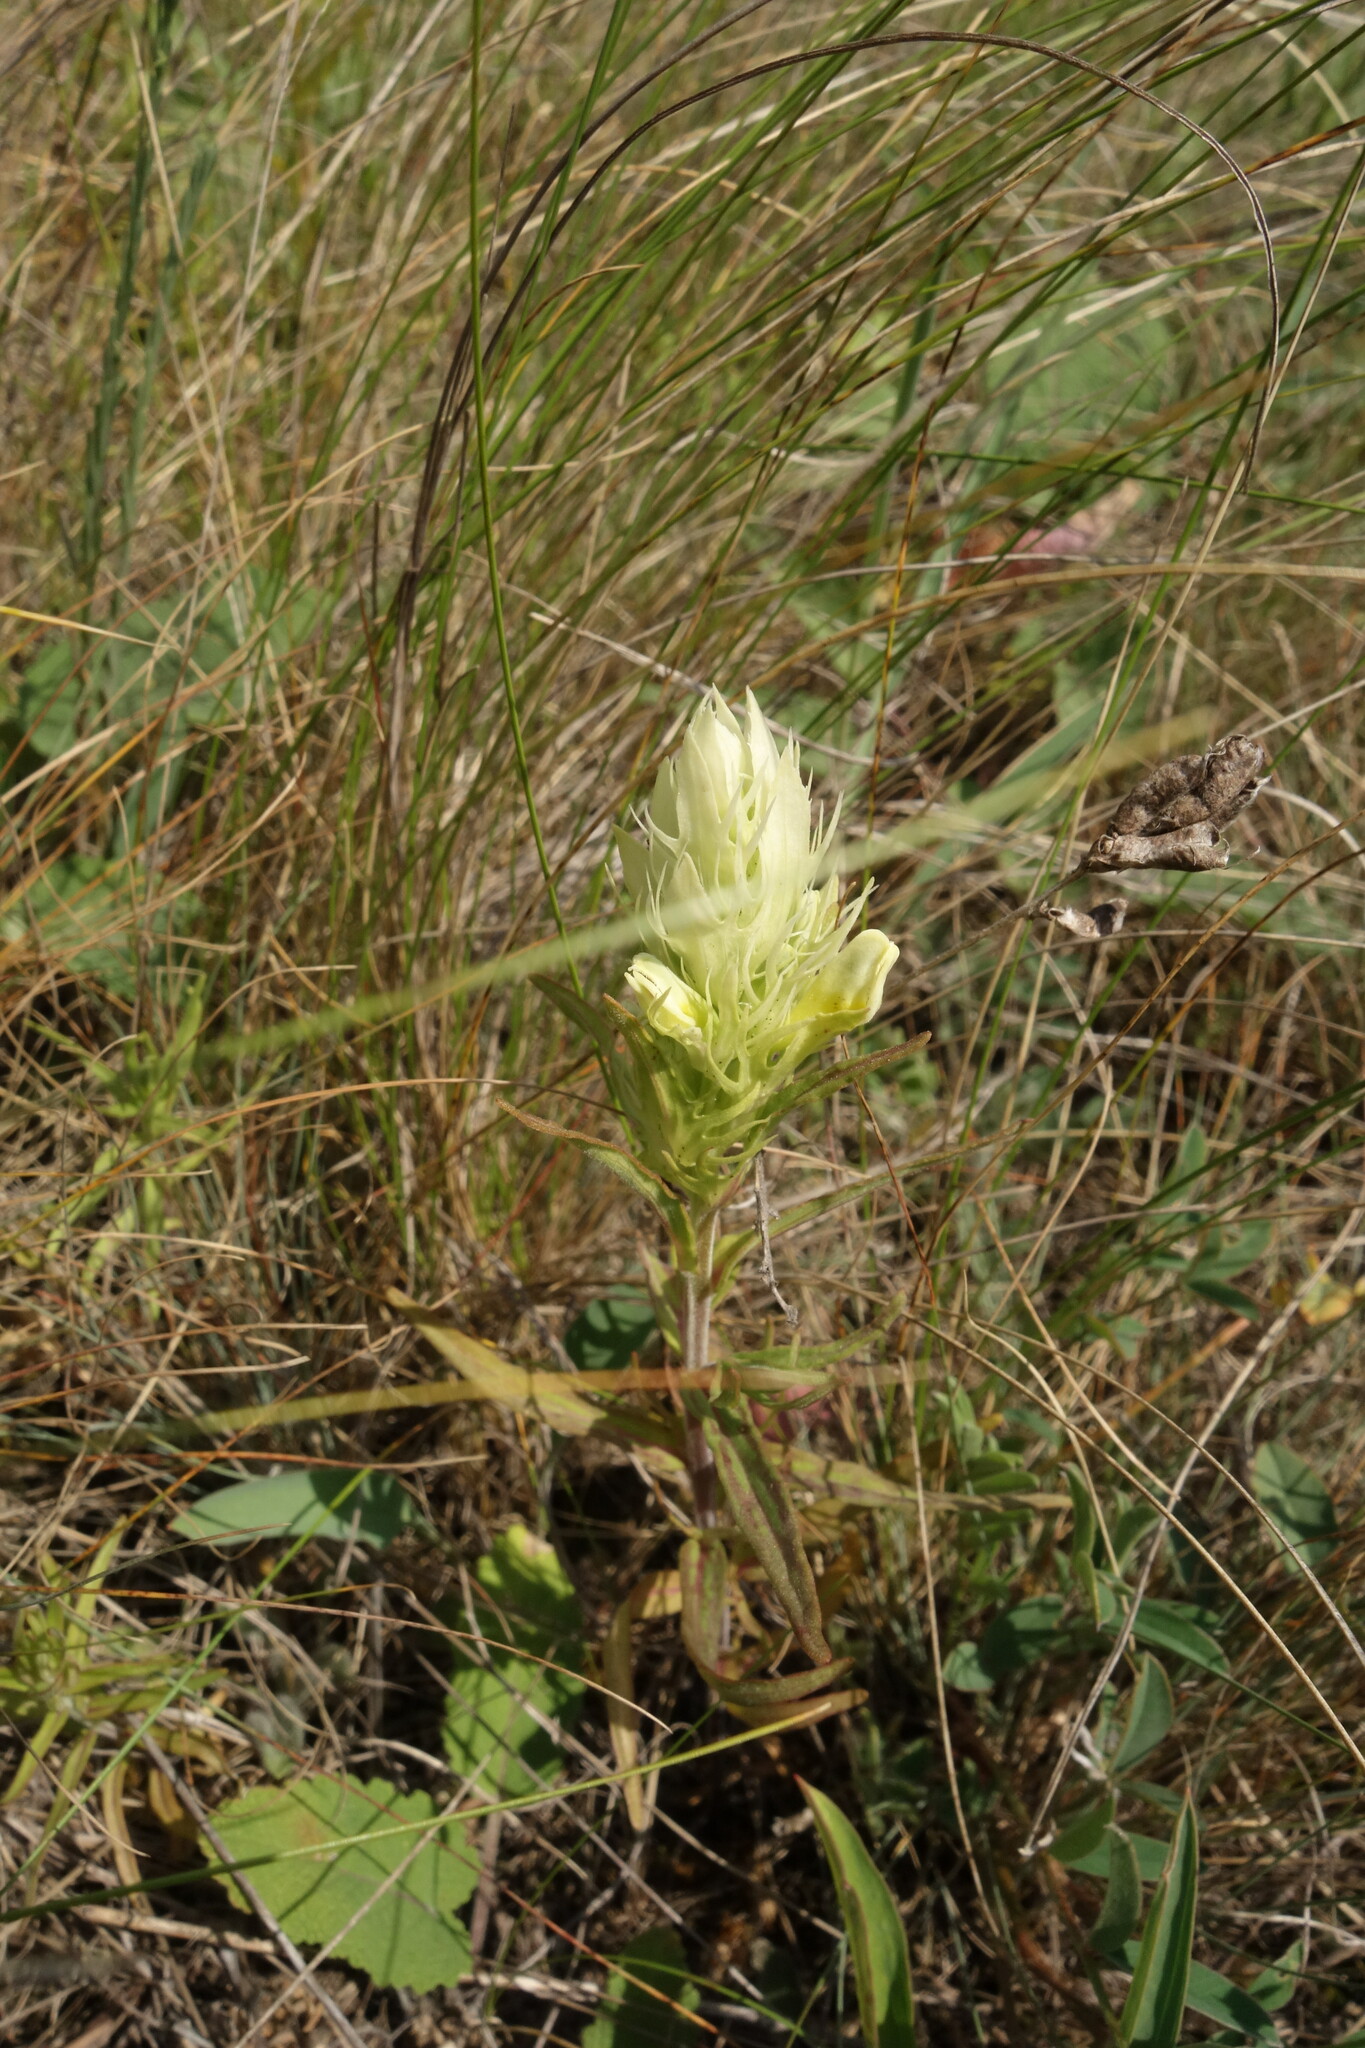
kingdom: Plantae
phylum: Tracheophyta
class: Magnoliopsida
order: Lamiales
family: Orobanchaceae
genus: Melampyrum
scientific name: Melampyrum arvense
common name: Field cow-wheat
